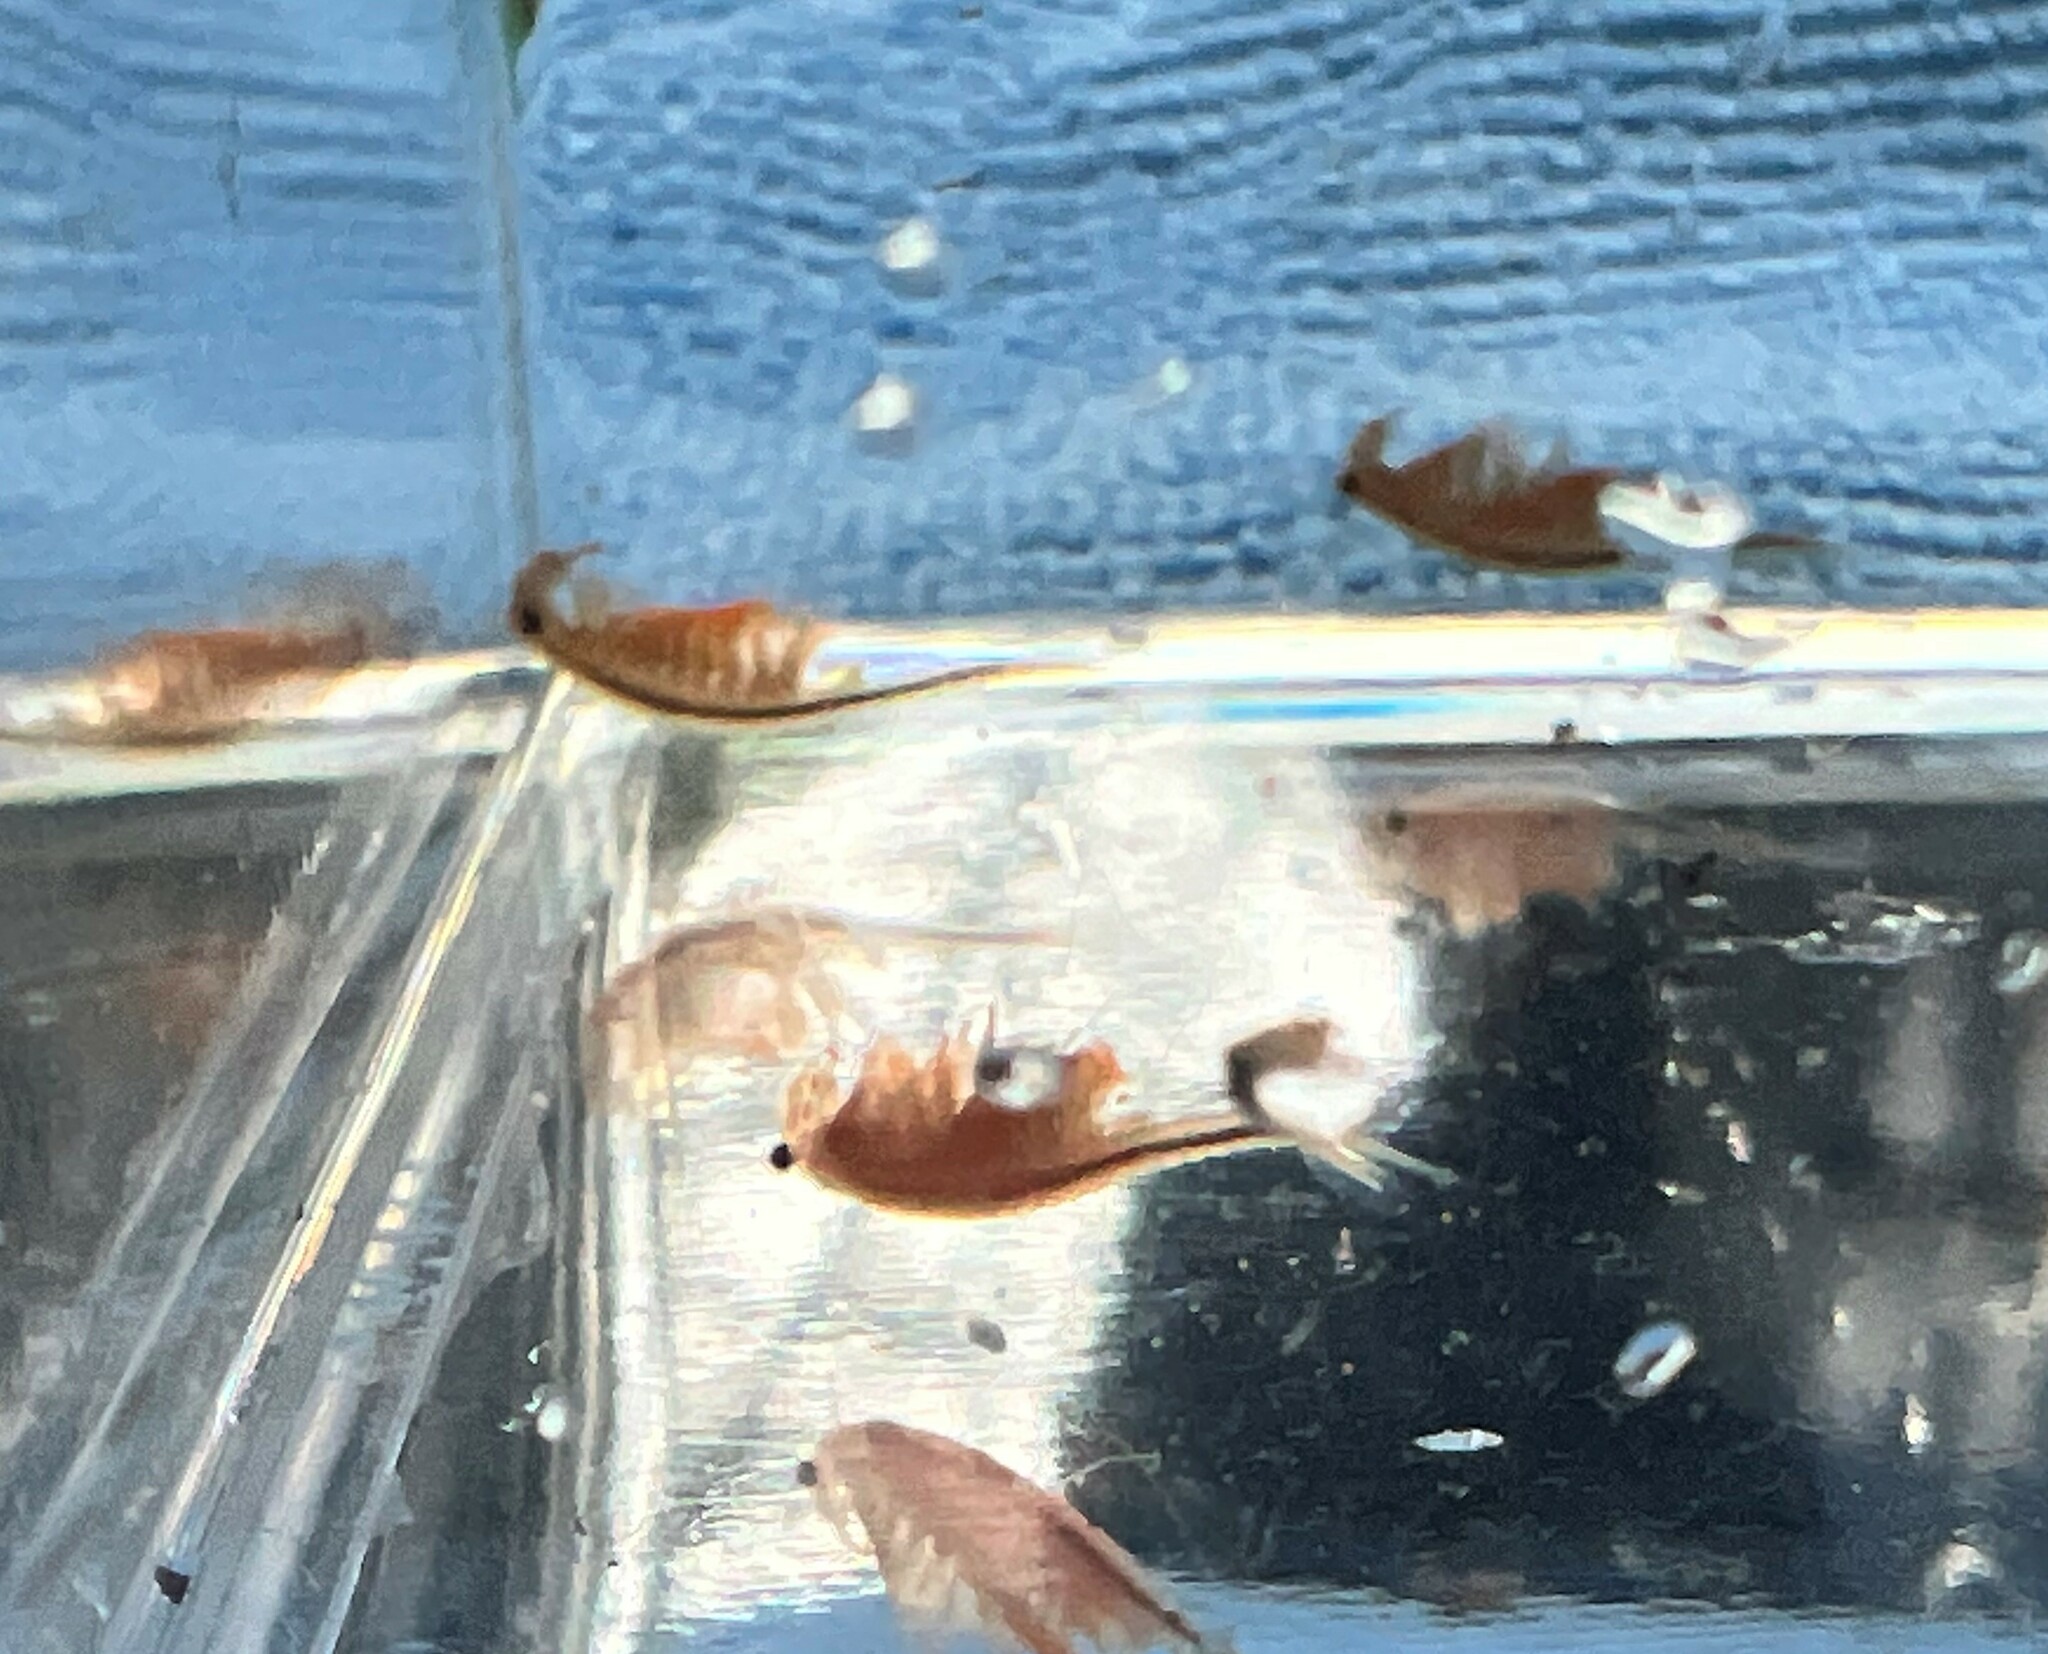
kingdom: Animalia
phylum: Arthropoda
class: Branchiopoda
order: Anostraca
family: Chirocephalidae
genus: Eubranchipus
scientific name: Eubranchipus oregonus
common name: Oregon fairy shrimp
